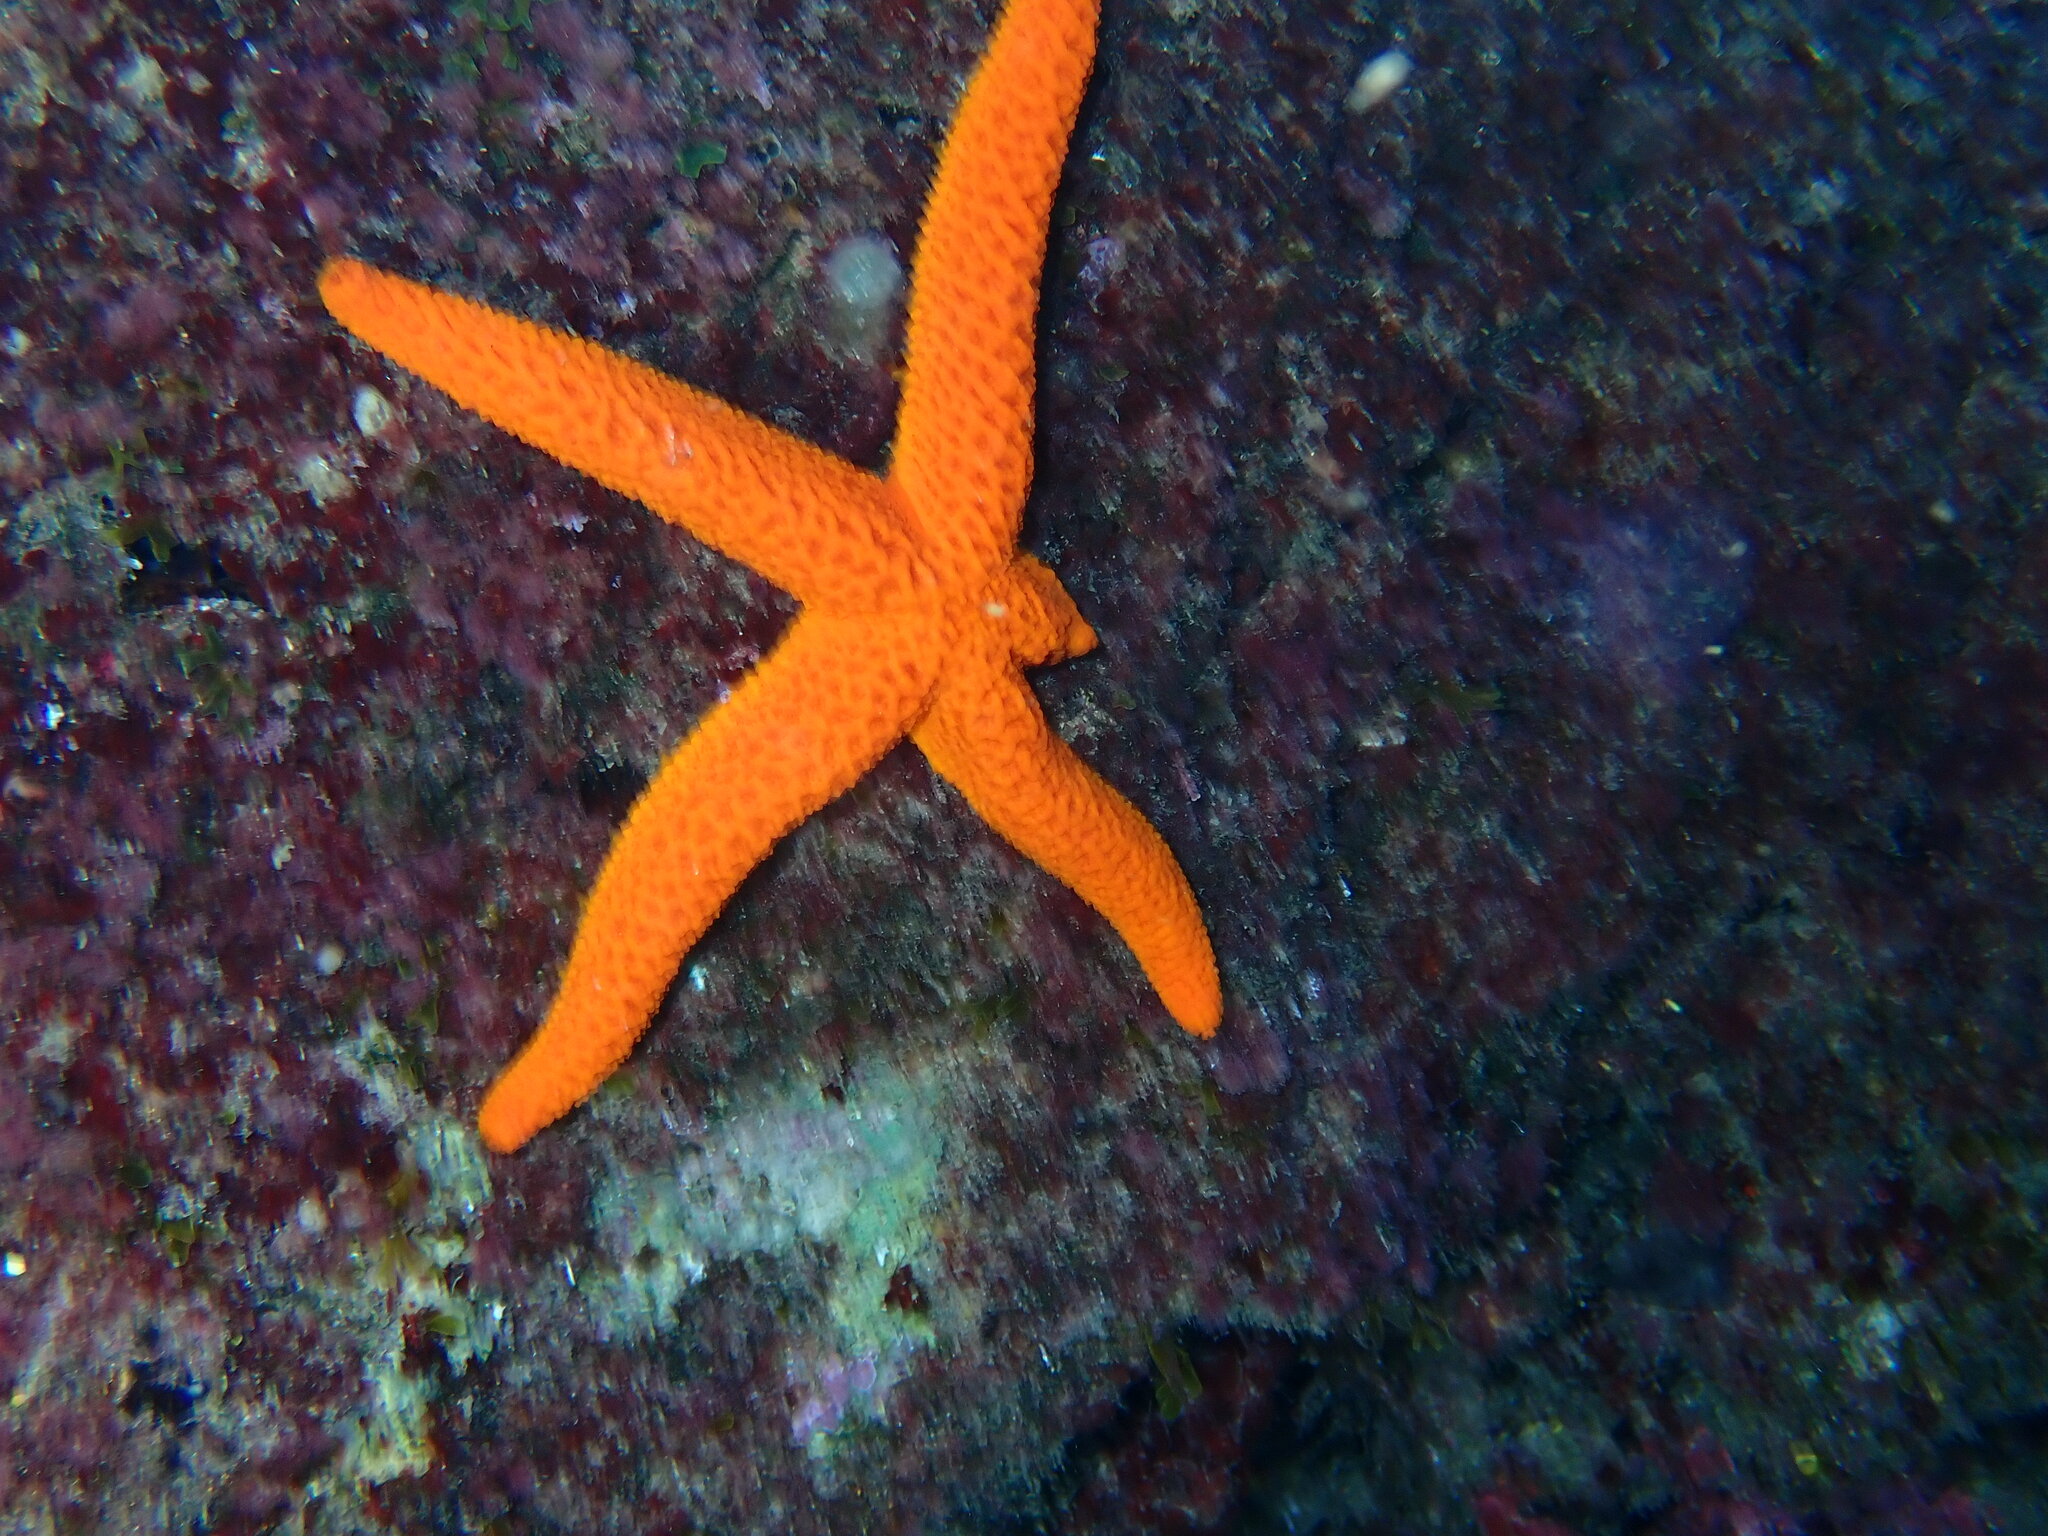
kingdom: Animalia
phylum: Echinodermata
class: Asteroidea
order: Spinulosida
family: Echinasteridae
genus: Echinaster
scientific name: Echinaster sepositus
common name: Red starfish
